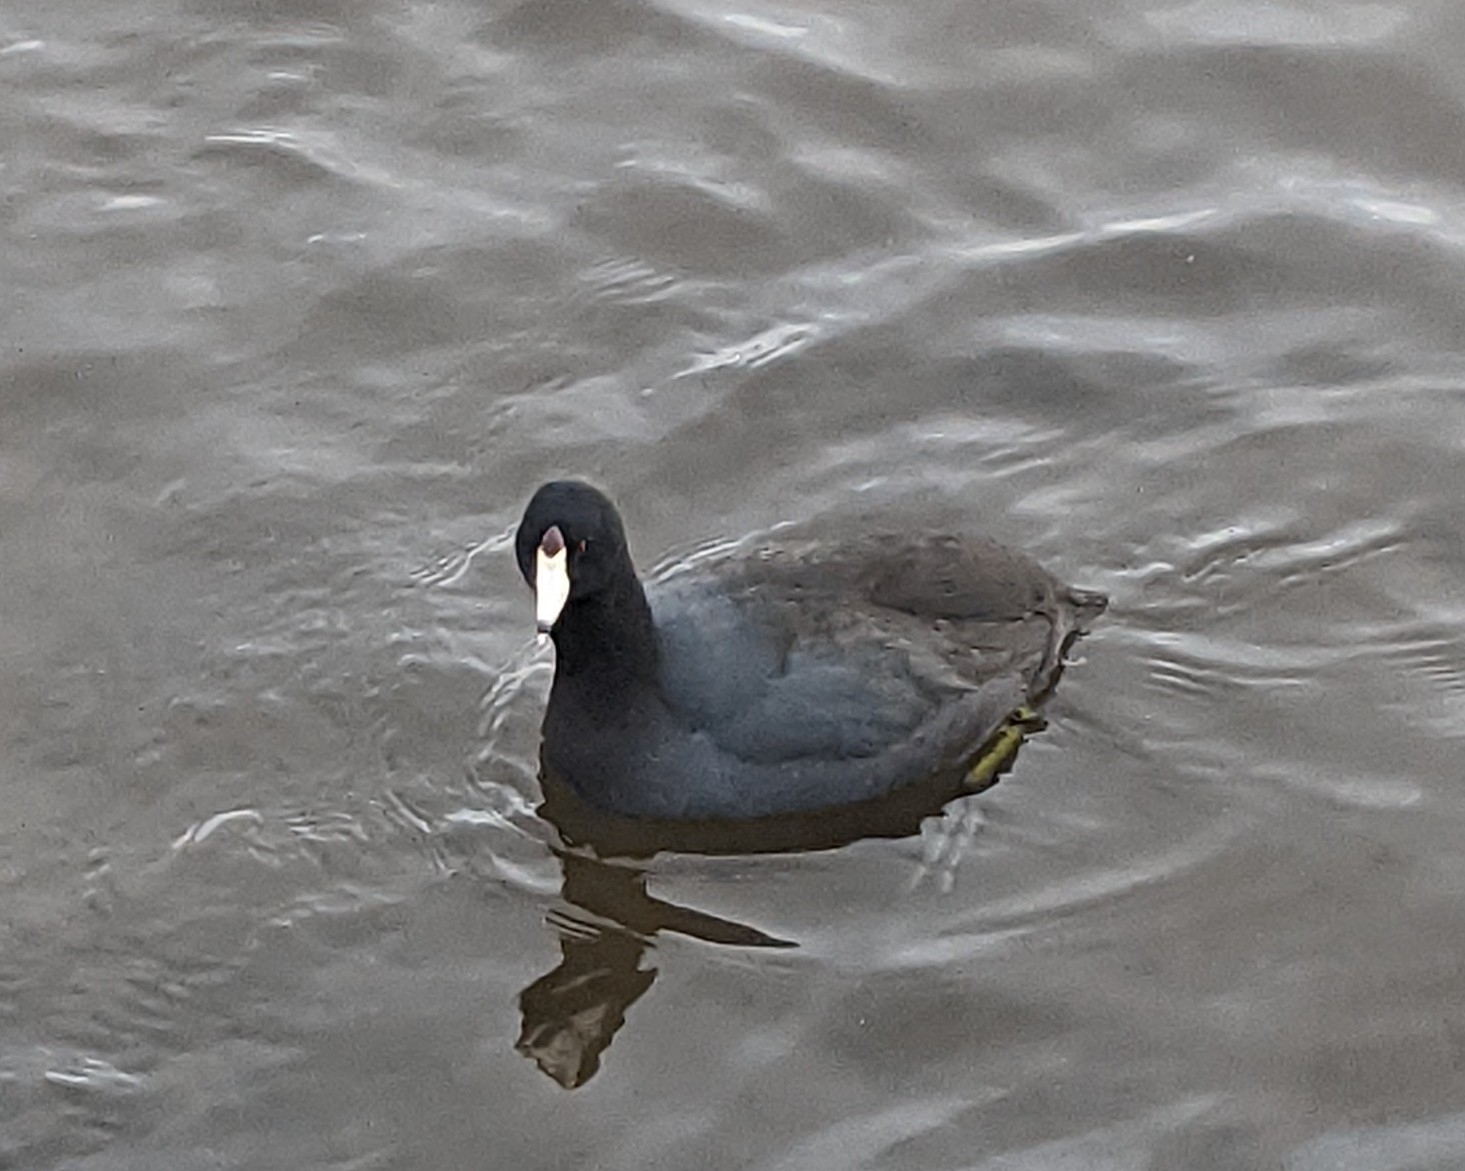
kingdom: Animalia
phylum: Chordata
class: Aves
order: Gruiformes
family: Rallidae
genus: Fulica
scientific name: Fulica americana
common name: American coot
